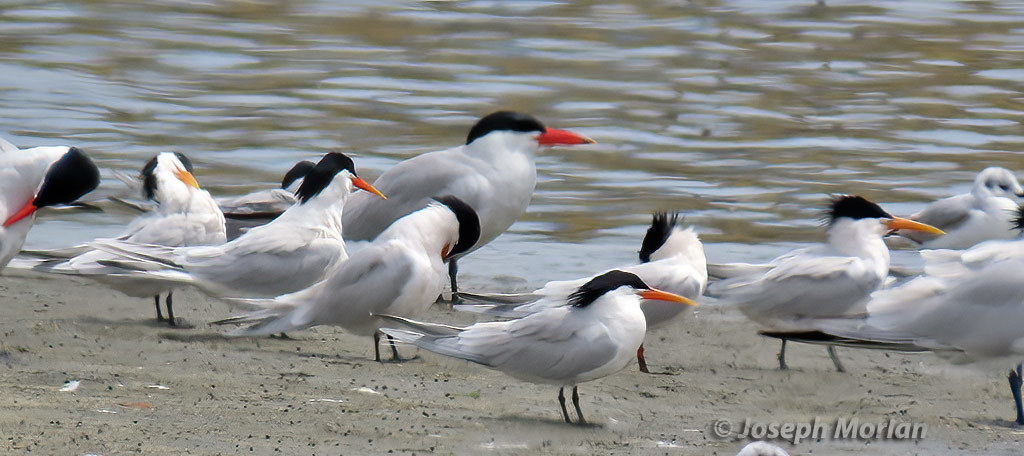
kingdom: Animalia
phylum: Chordata
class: Aves
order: Charadriiformes
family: Laridae
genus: Thalasseus
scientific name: Thalasseus elegans
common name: Elegant tern
